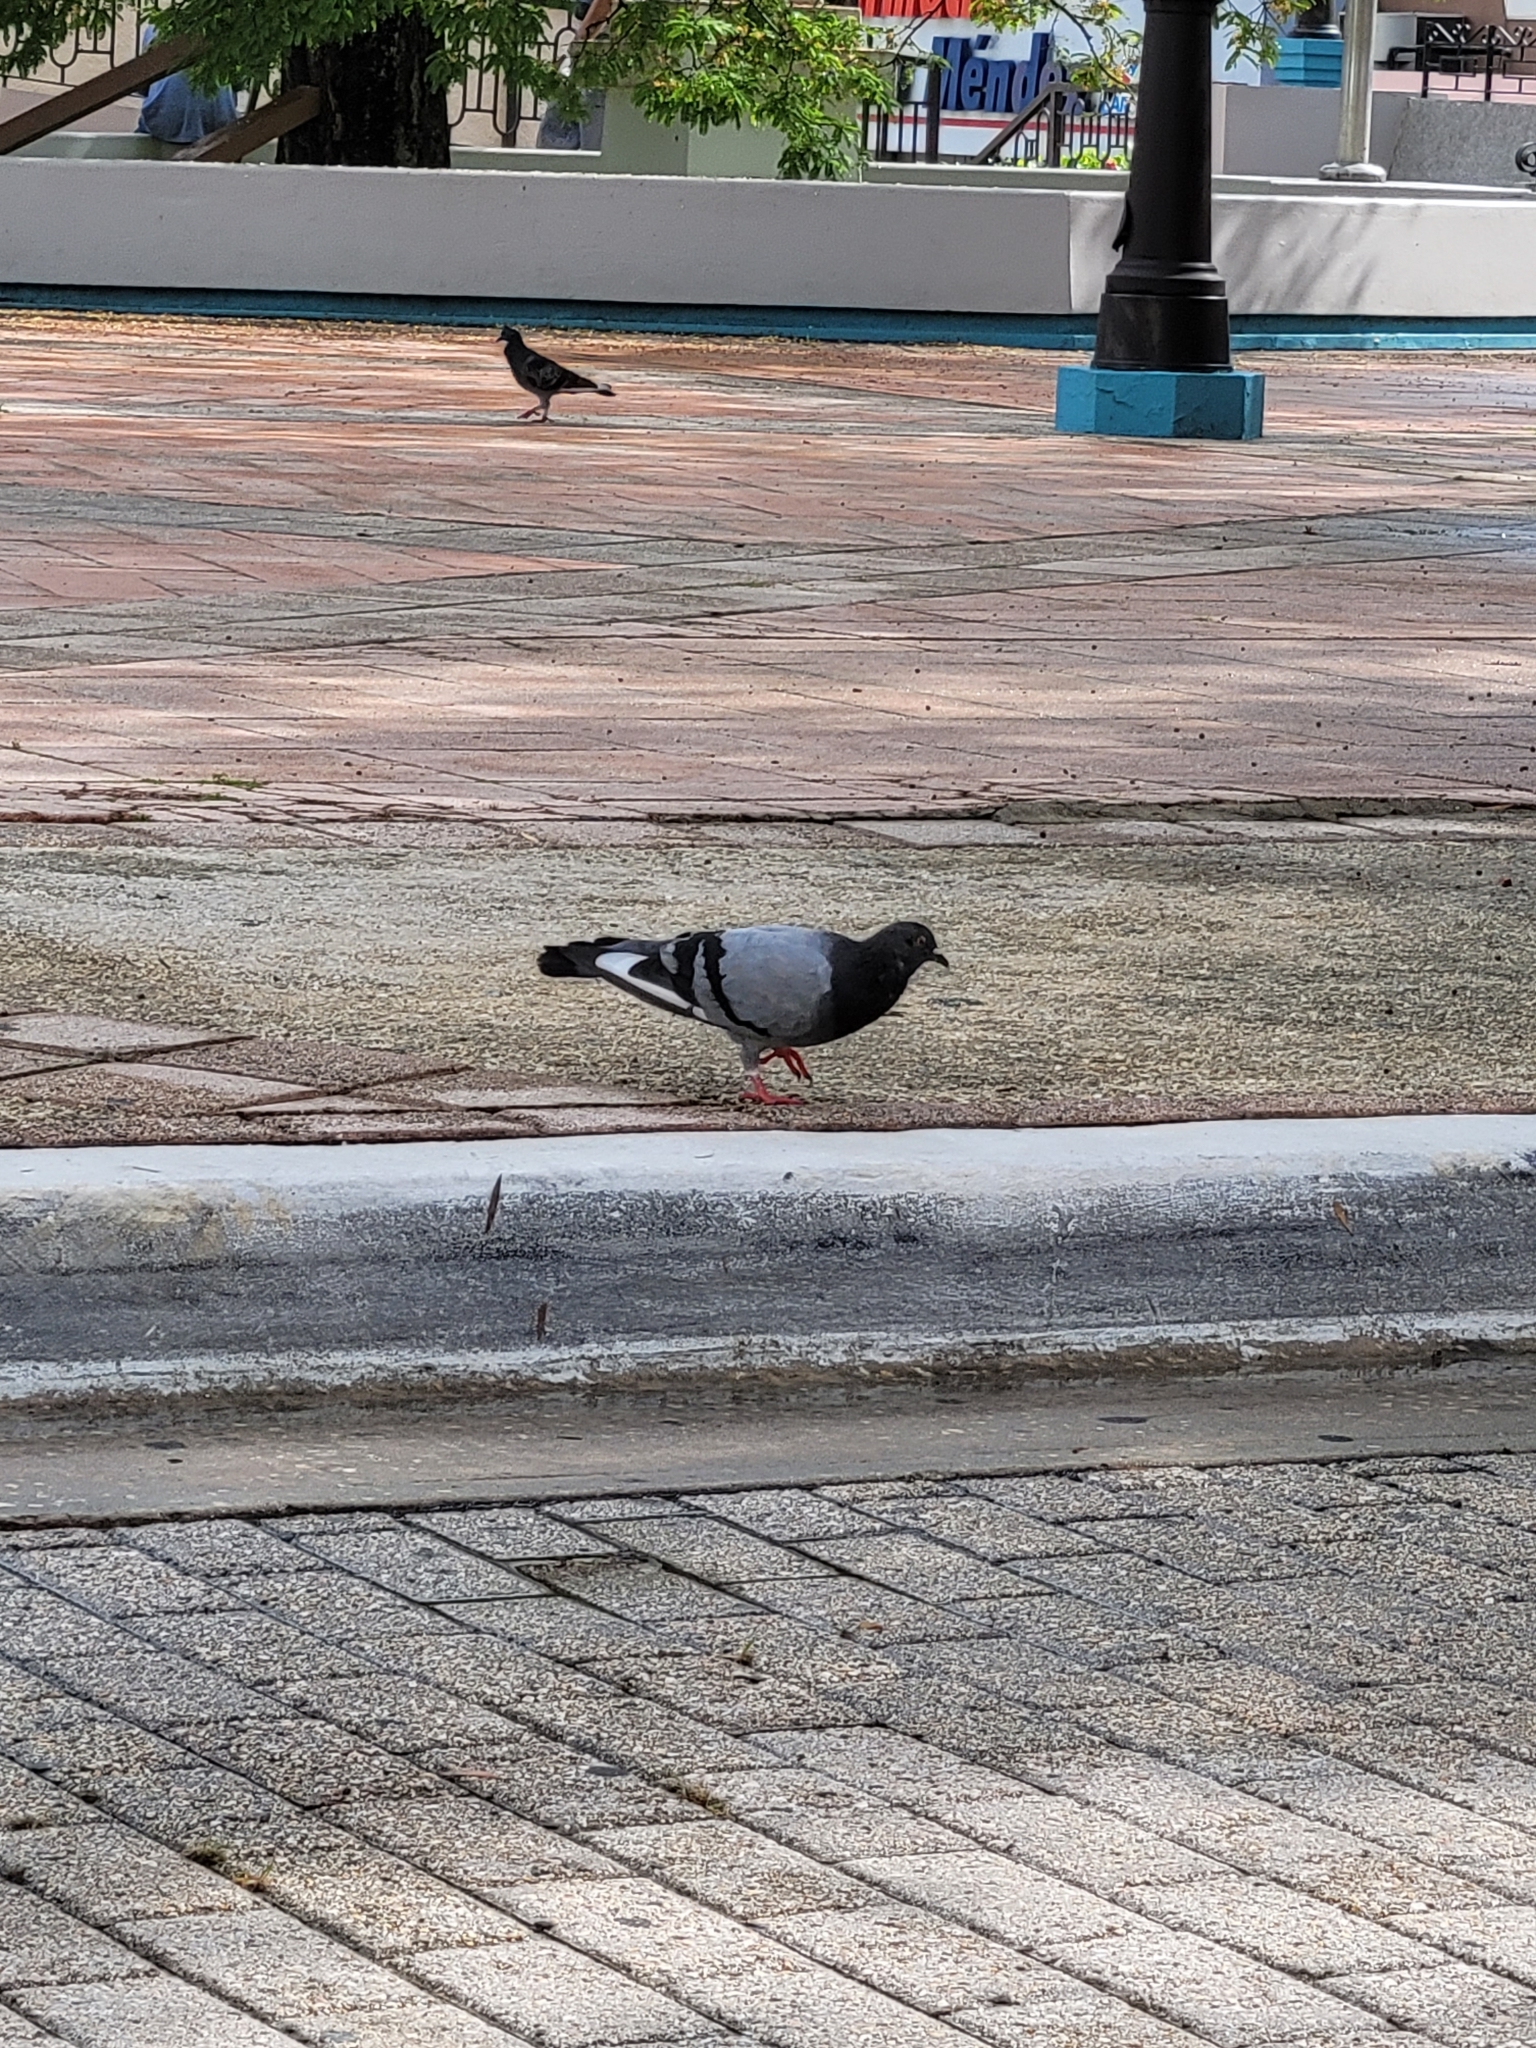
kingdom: Animalia
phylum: Chordata
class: Aves
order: Columbiformes
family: Columbidae
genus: Columba
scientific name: Columba livia
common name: Rock pigeon
